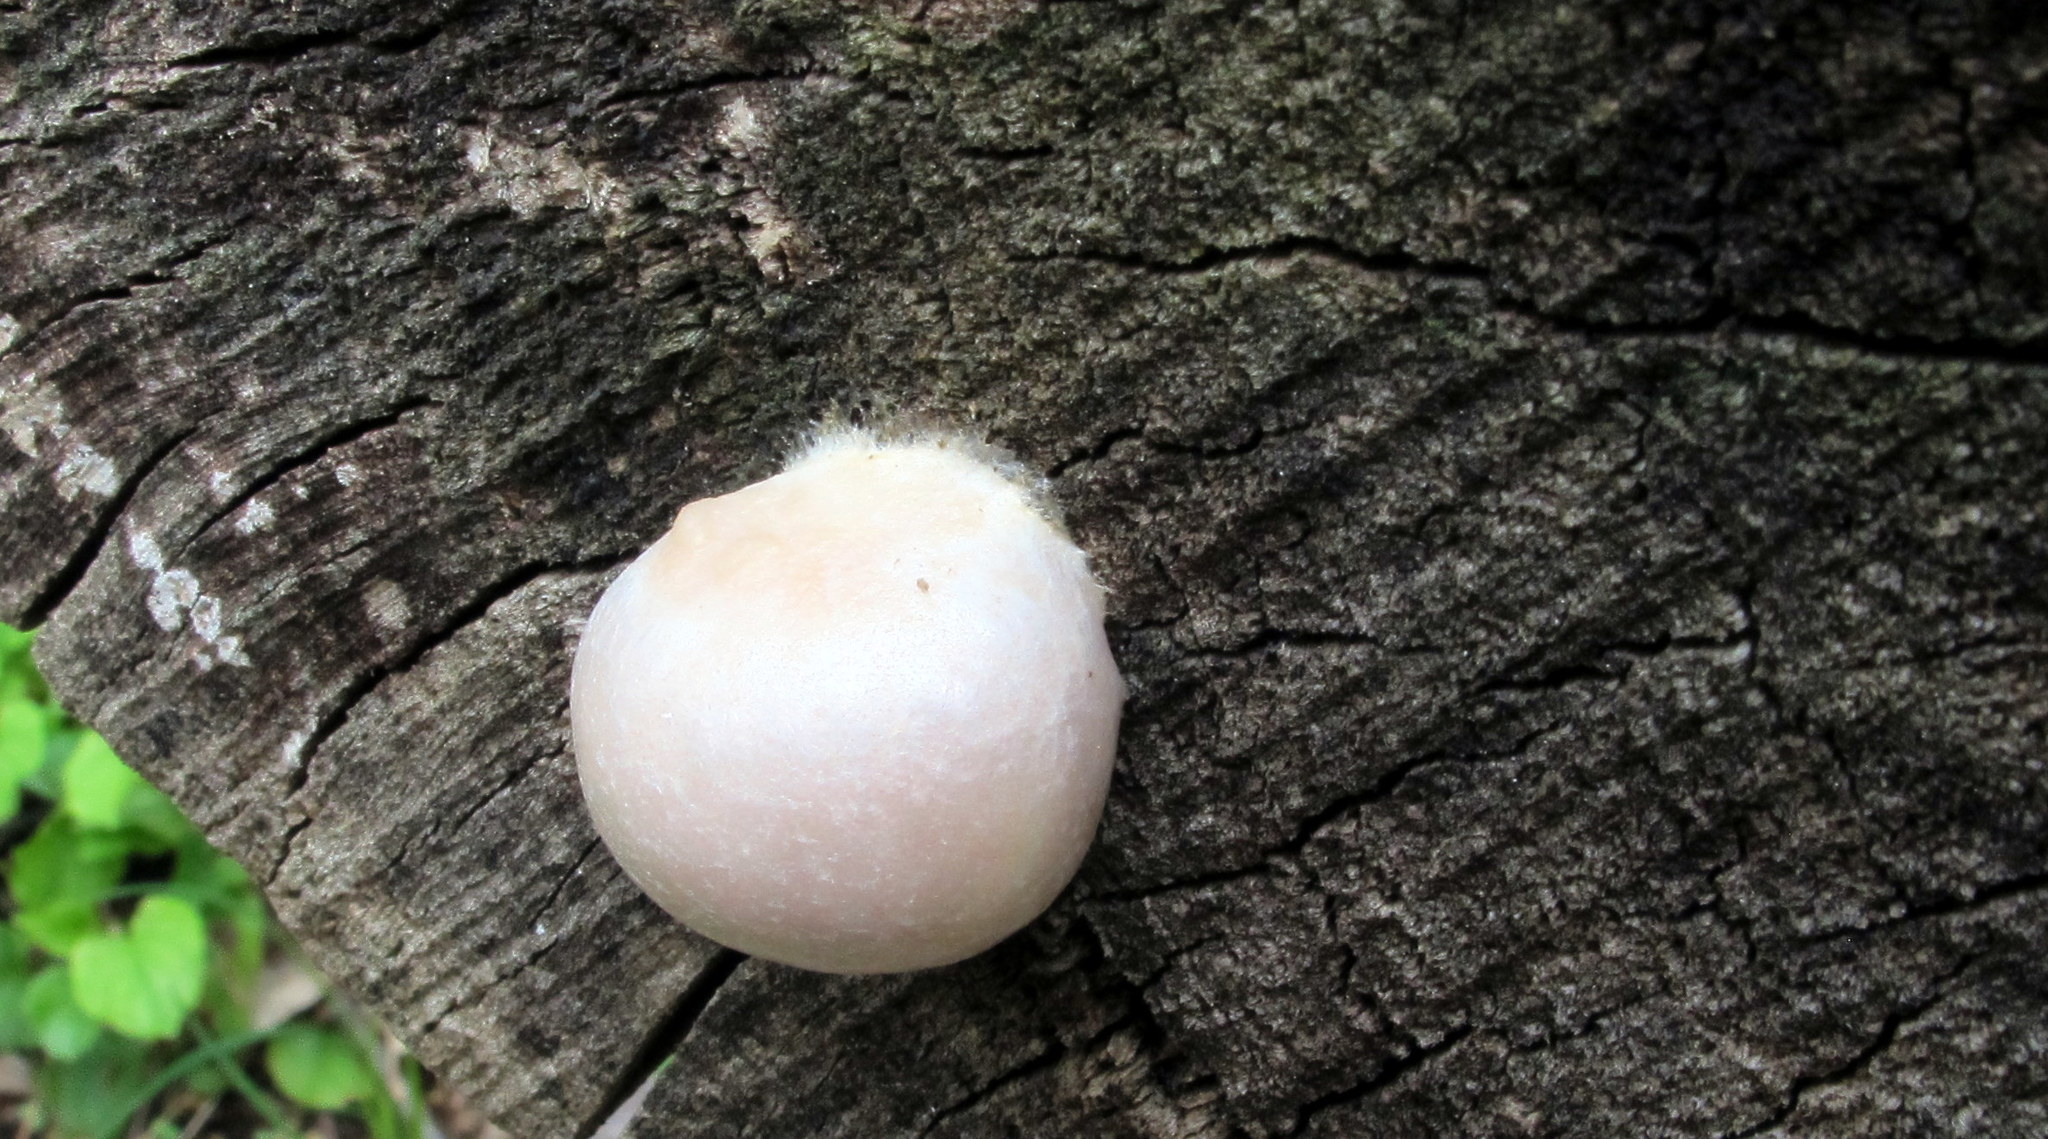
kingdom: Protozoa
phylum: Mycetozoa
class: Myxomycetes
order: Cribrariales
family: Tubiferaceae
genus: Reticularia
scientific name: Reticularia lycoperdon
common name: False puffball
